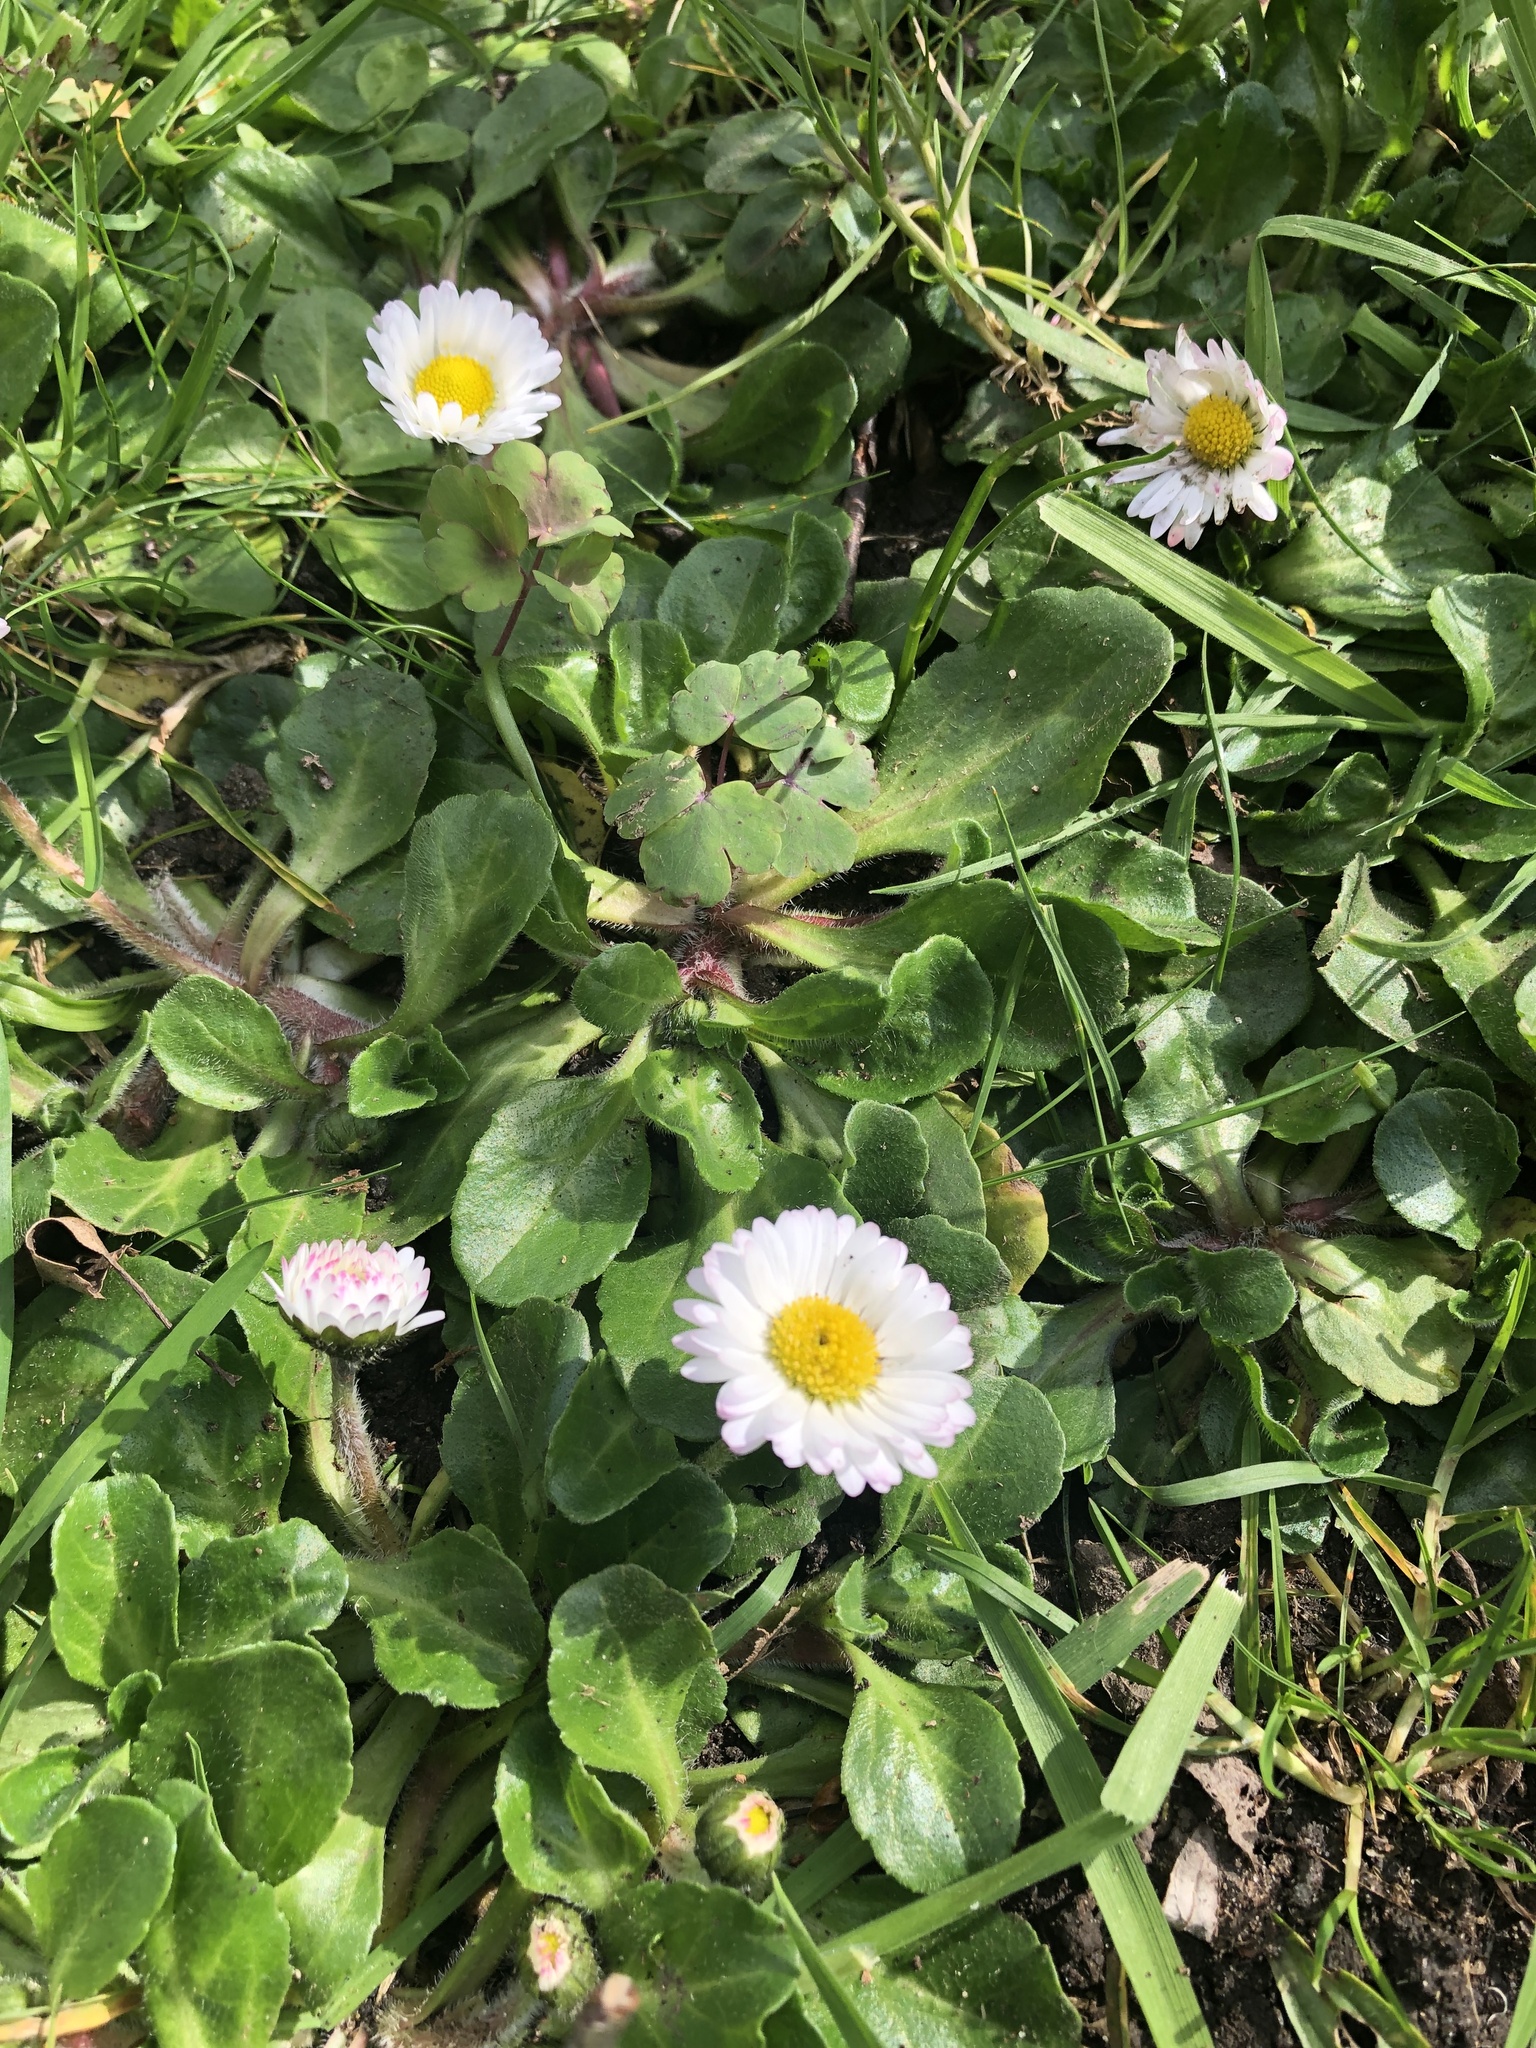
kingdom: Plantae
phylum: Tracheophyta
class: Magnoliopsida
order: Asterales
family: Asteraceae
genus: Bellis
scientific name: Bellis perennis
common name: Lawndaisy
